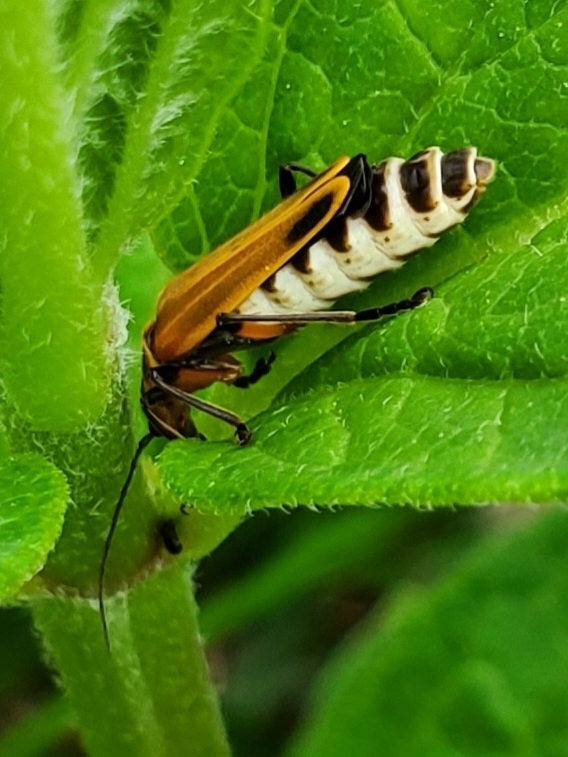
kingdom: Animalia
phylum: Arthropoda
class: Insecta
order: Coleoptera
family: Cantharidae
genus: Chauliognathus
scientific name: Chauliognathus marginatus
